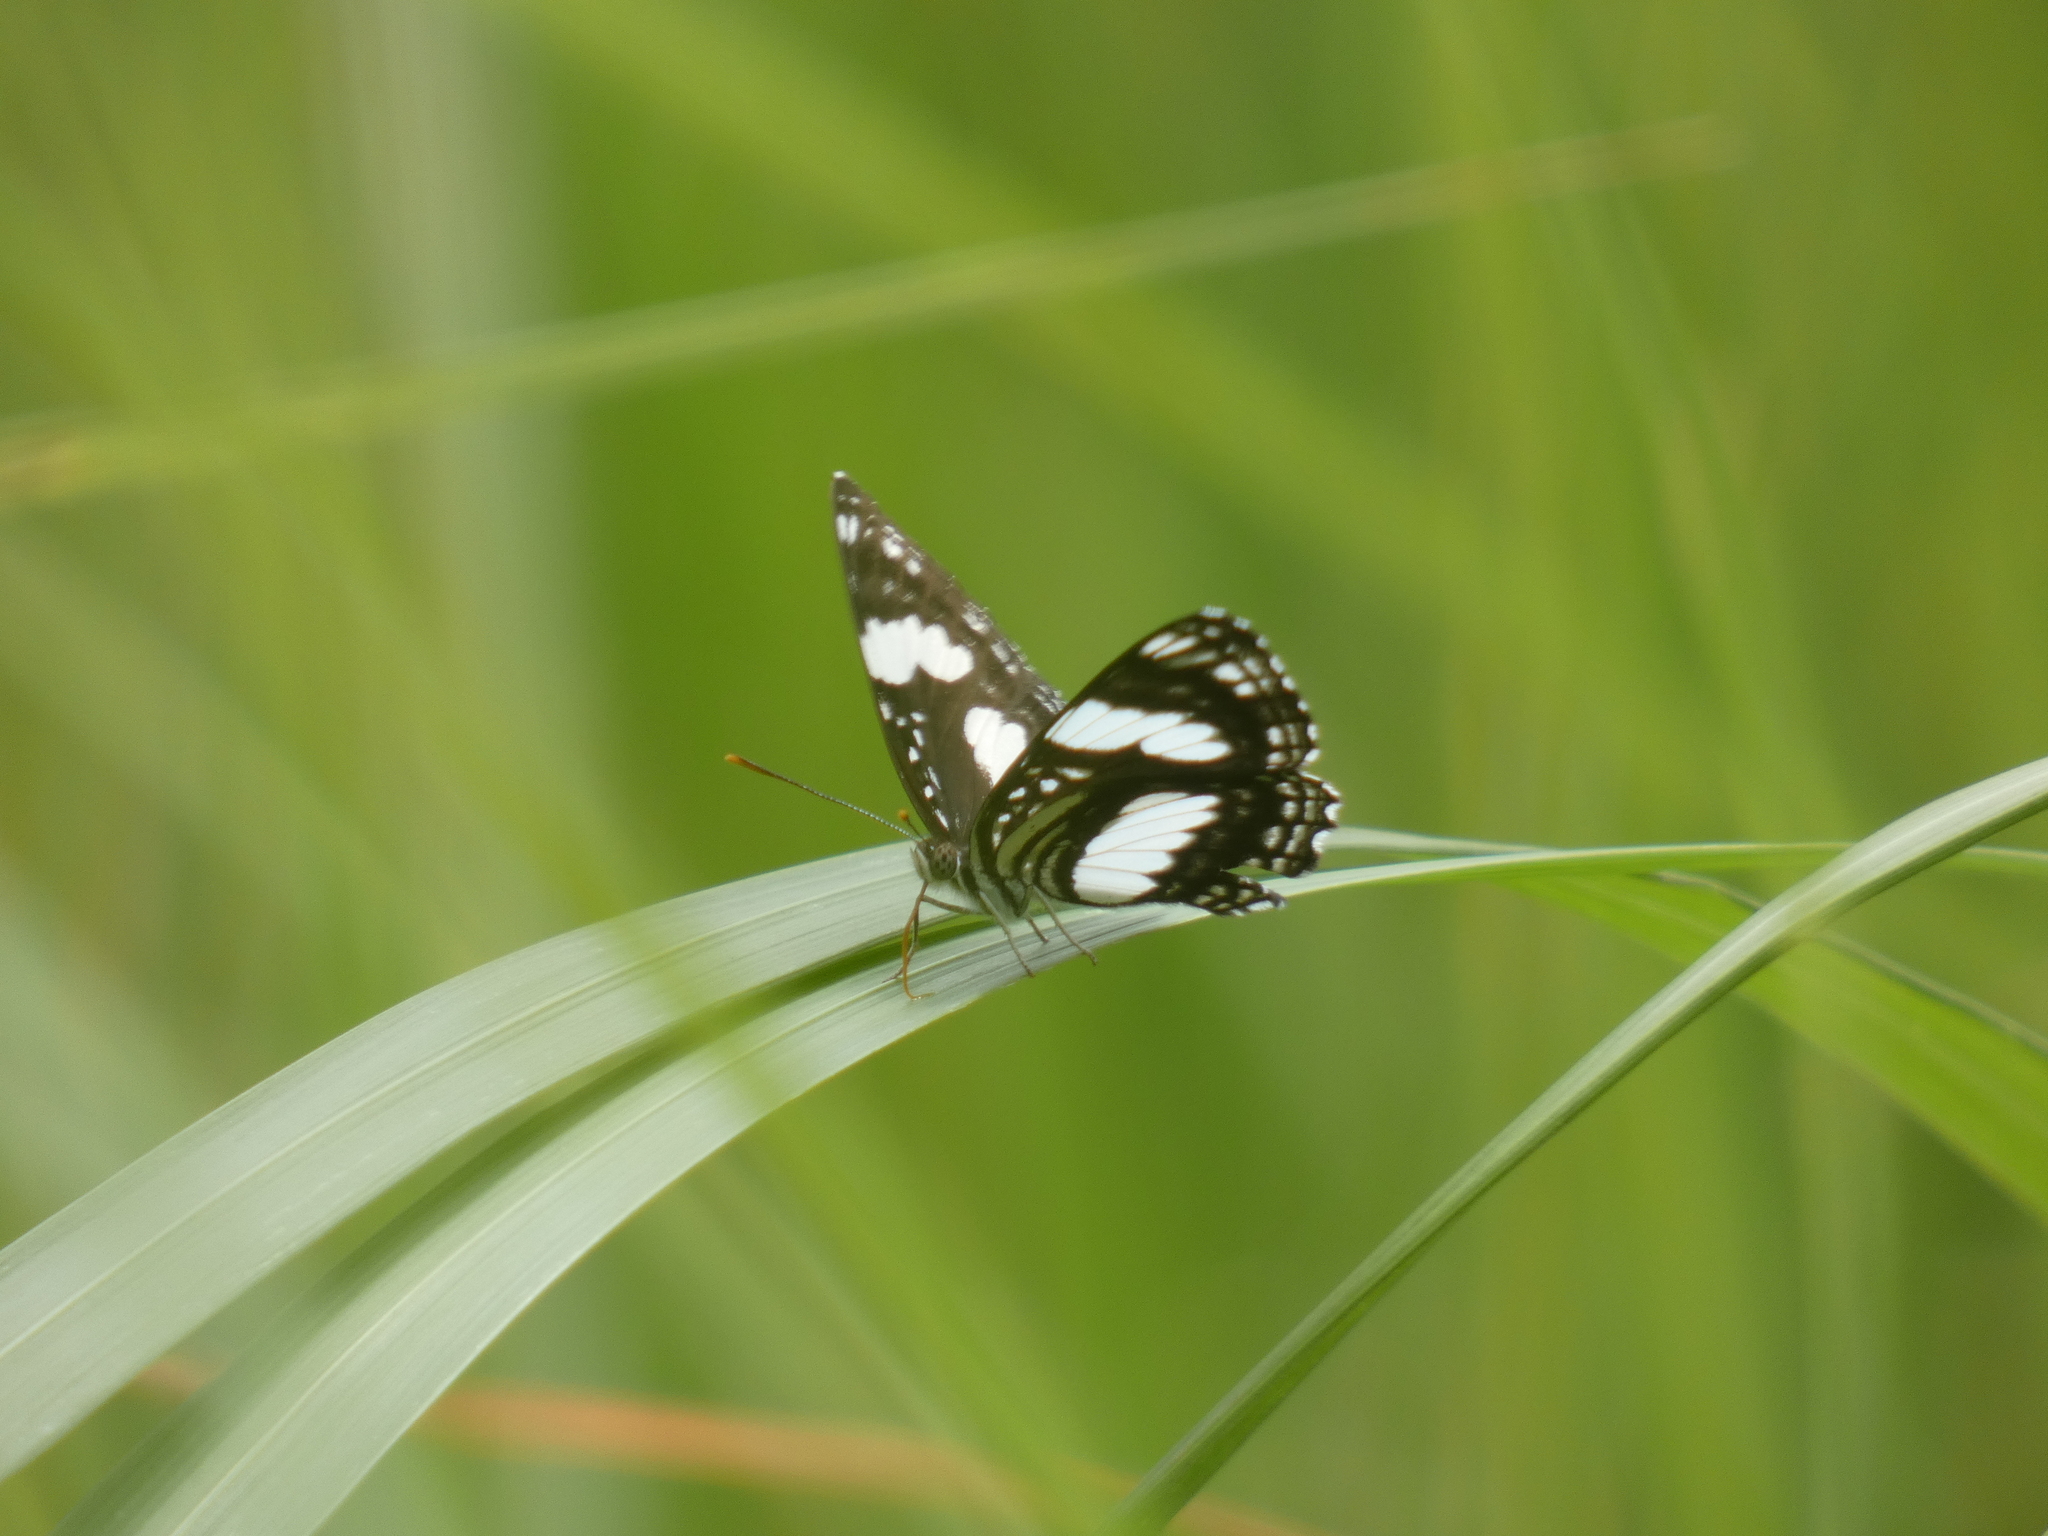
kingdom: Animalia
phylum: Arthropoda
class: Insecta
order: Lepidoptera
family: Nymphalidae
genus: Neptis
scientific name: Neptis morosa
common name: Savanna sailer
